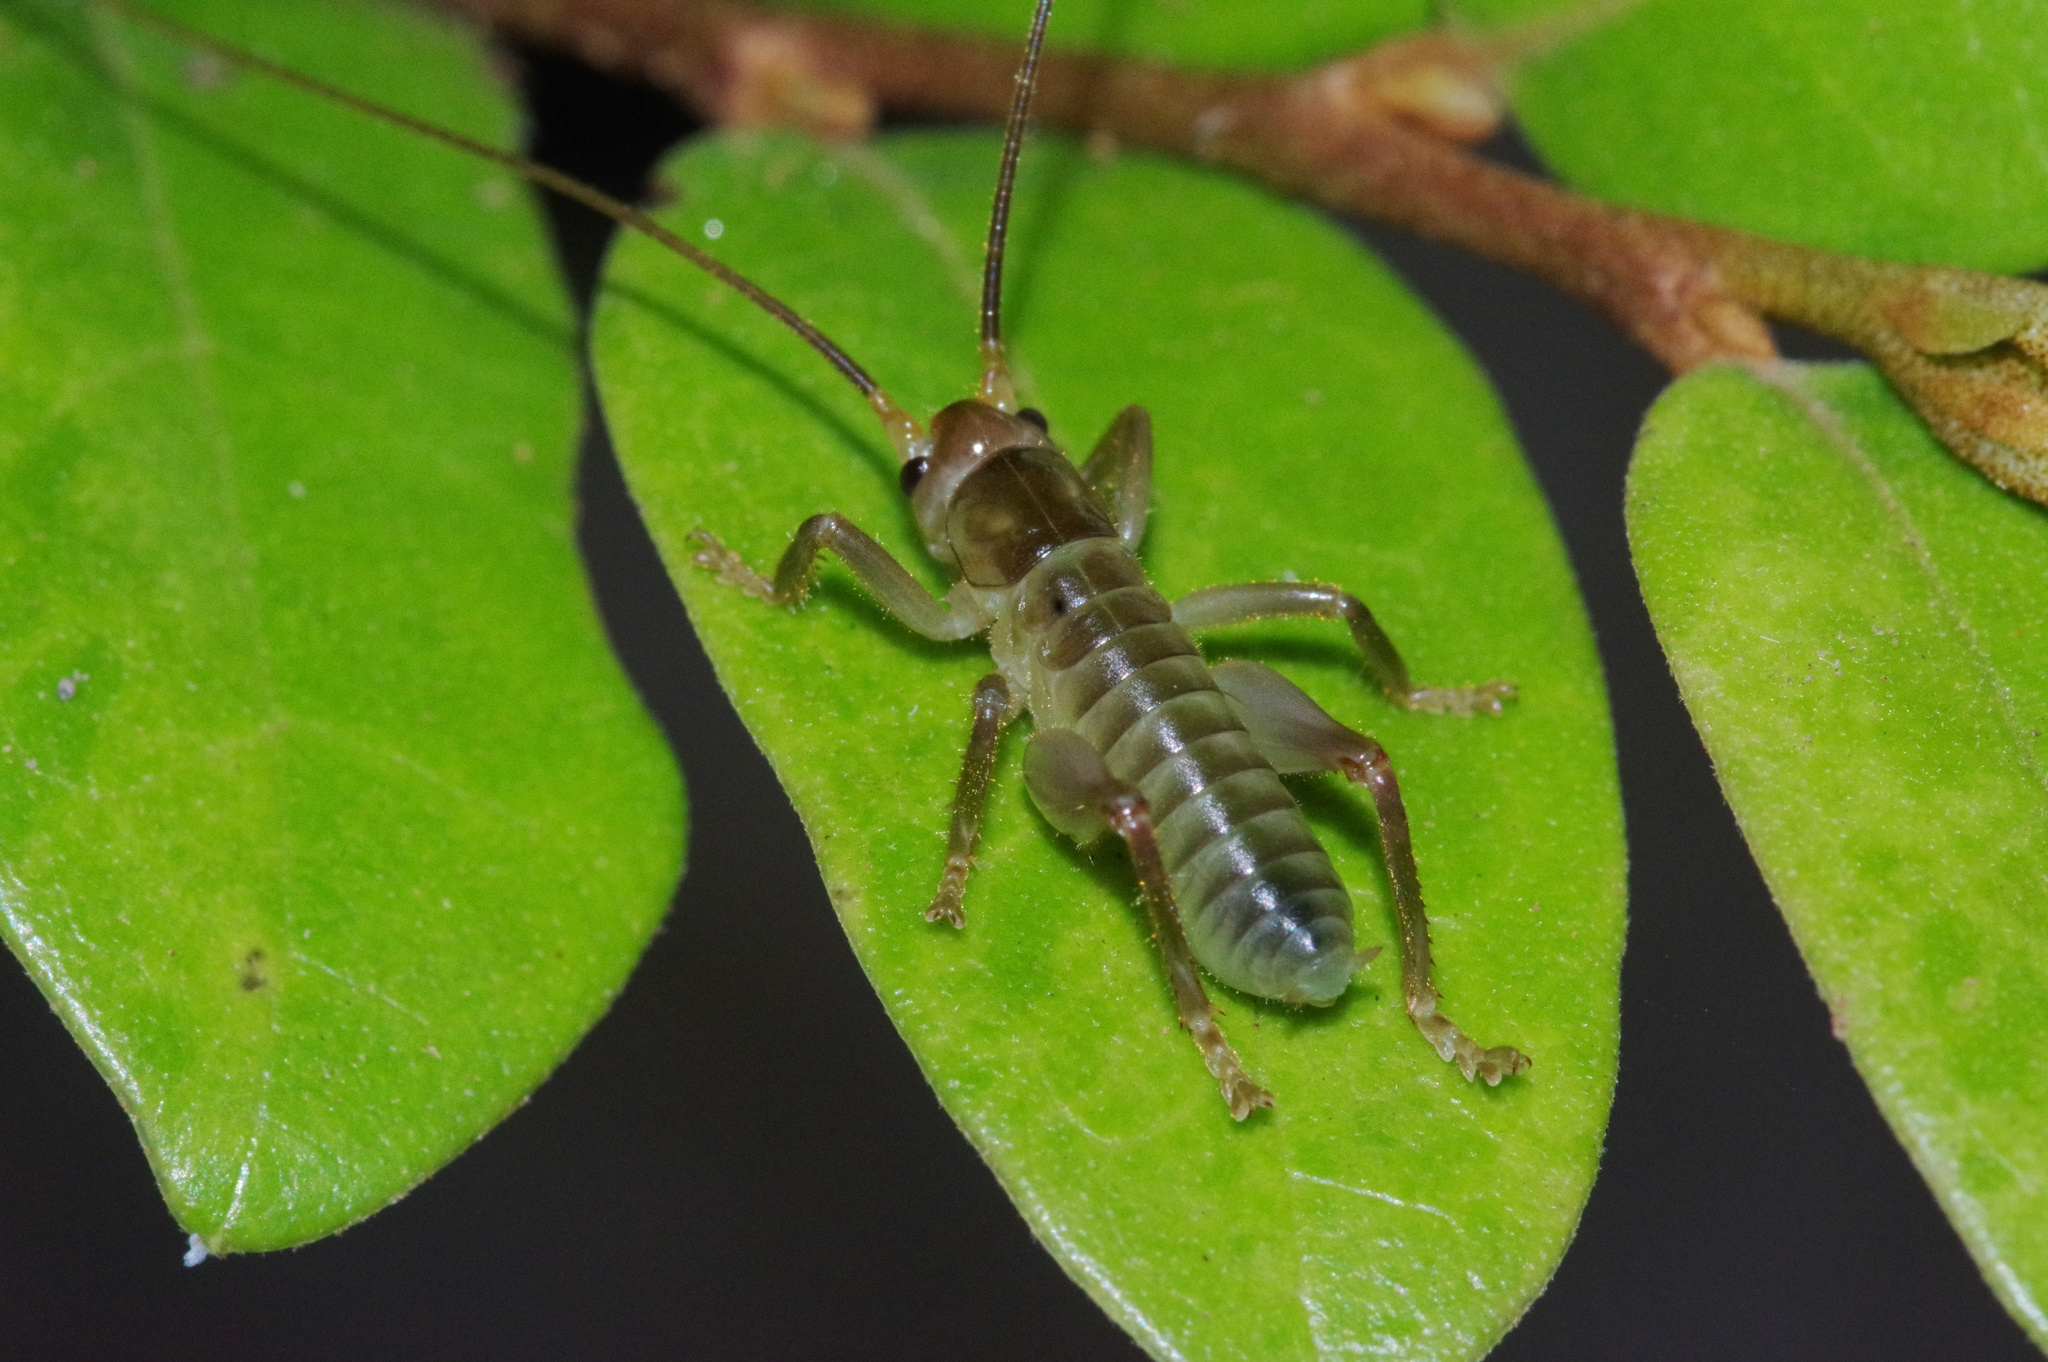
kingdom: Animalia
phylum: Arthropoda
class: Insecta
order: Orthoptera
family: Gryllacrididae
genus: Metriogryllacris
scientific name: Metriogryllacris magna
